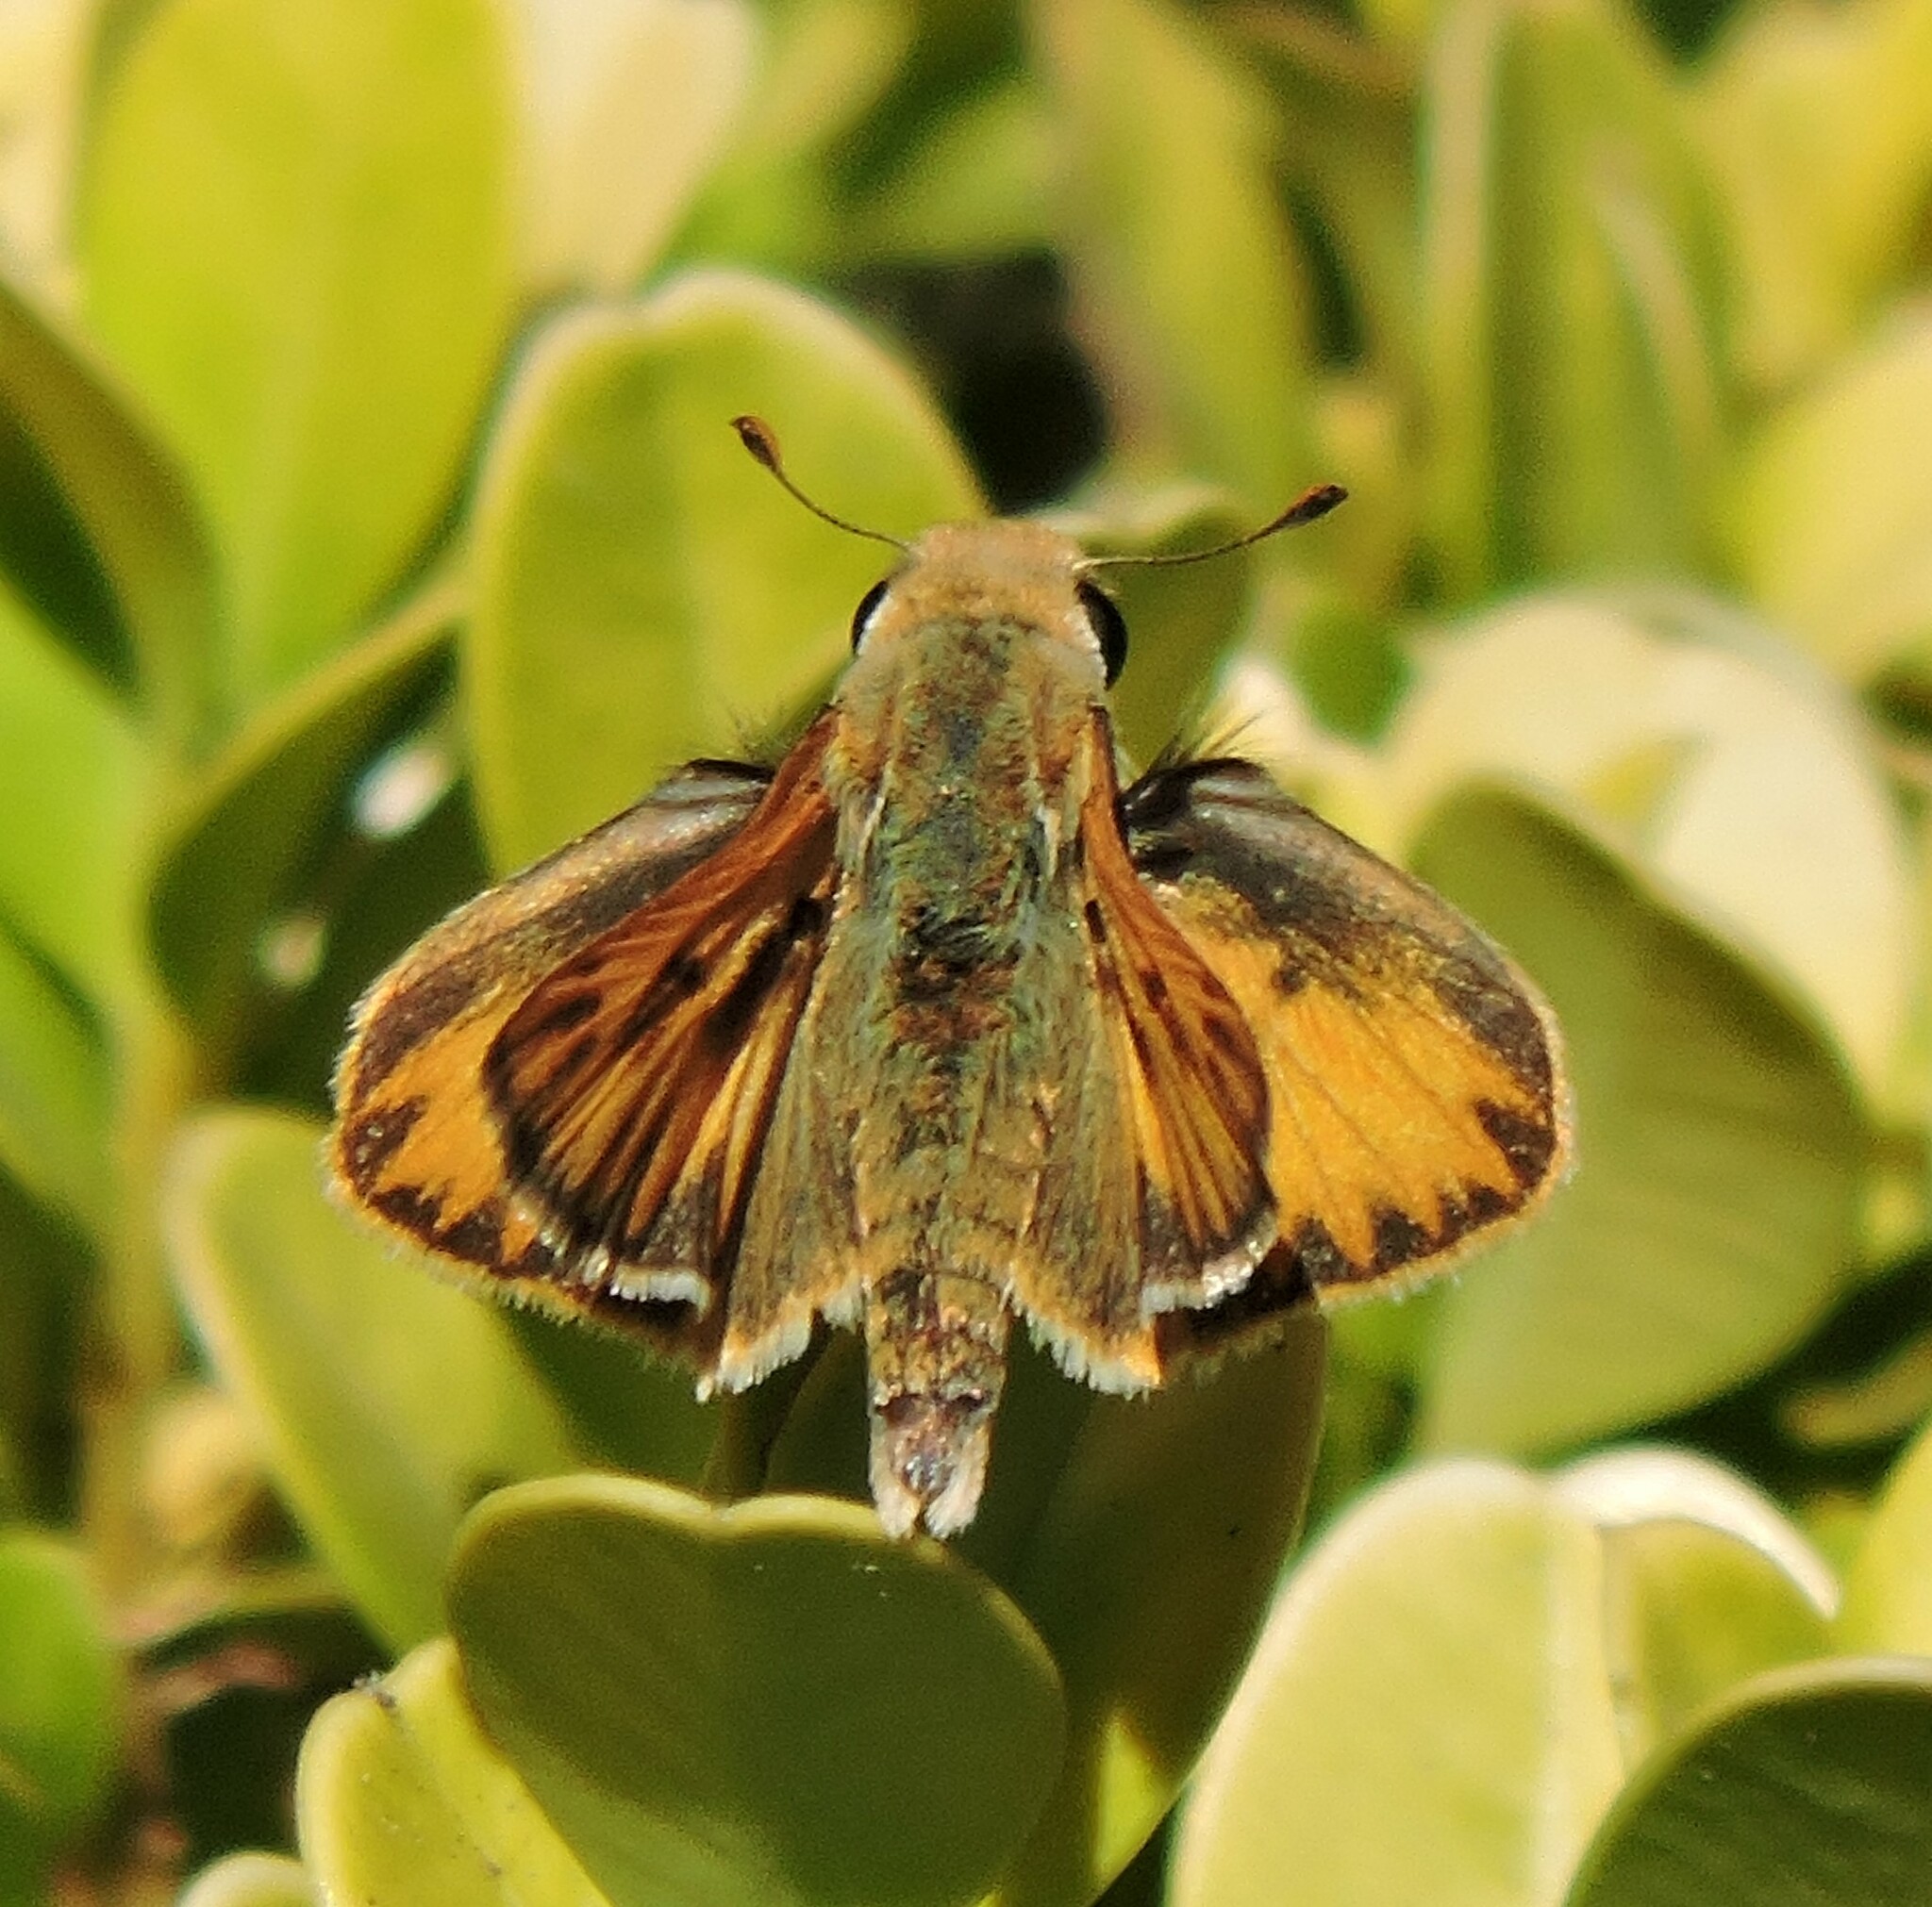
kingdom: Animalia
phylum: Arthropoda
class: Insecta
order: Lepidoptera
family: Hesperiidae
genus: Hylephila
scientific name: Hylephila phyleus
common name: Fiery skipper
